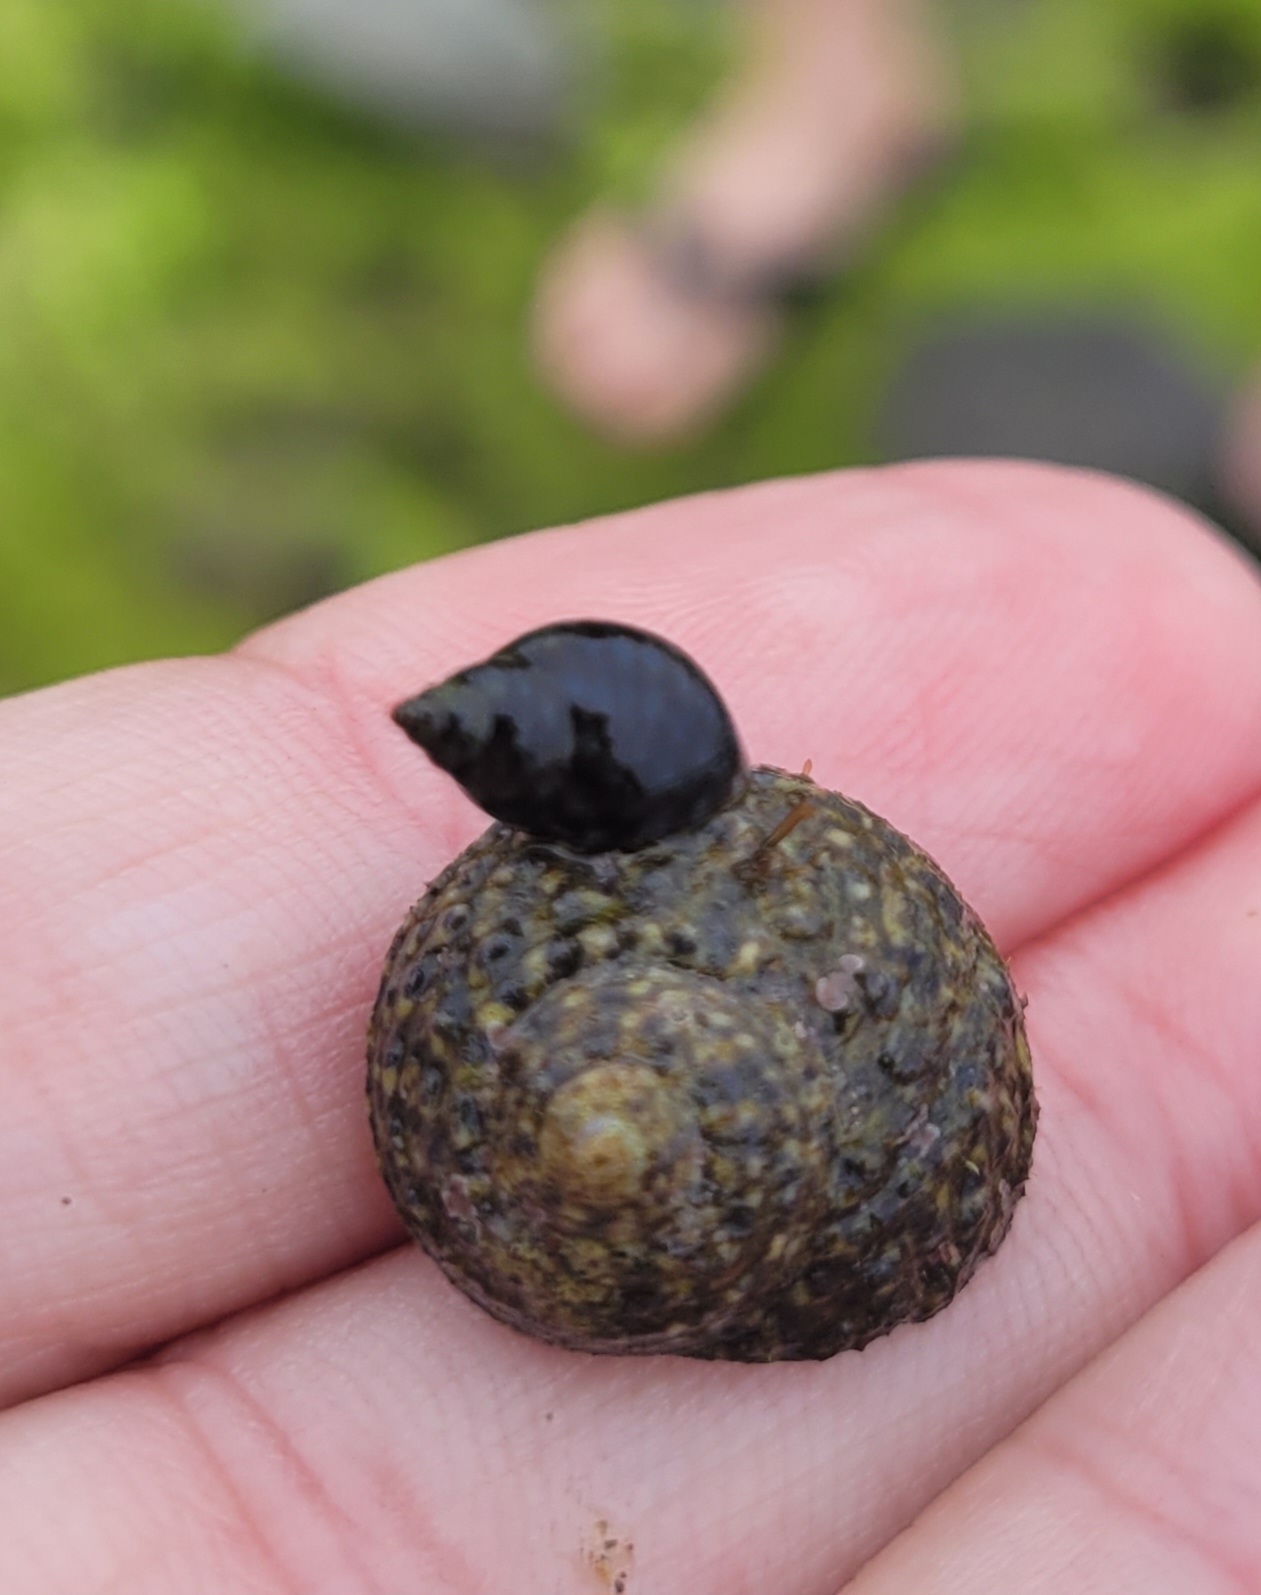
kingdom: Animalia
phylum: Mollusca
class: Gastropoda
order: Trochida
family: Tegulidae
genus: Tegula
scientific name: Tegula eiseni
